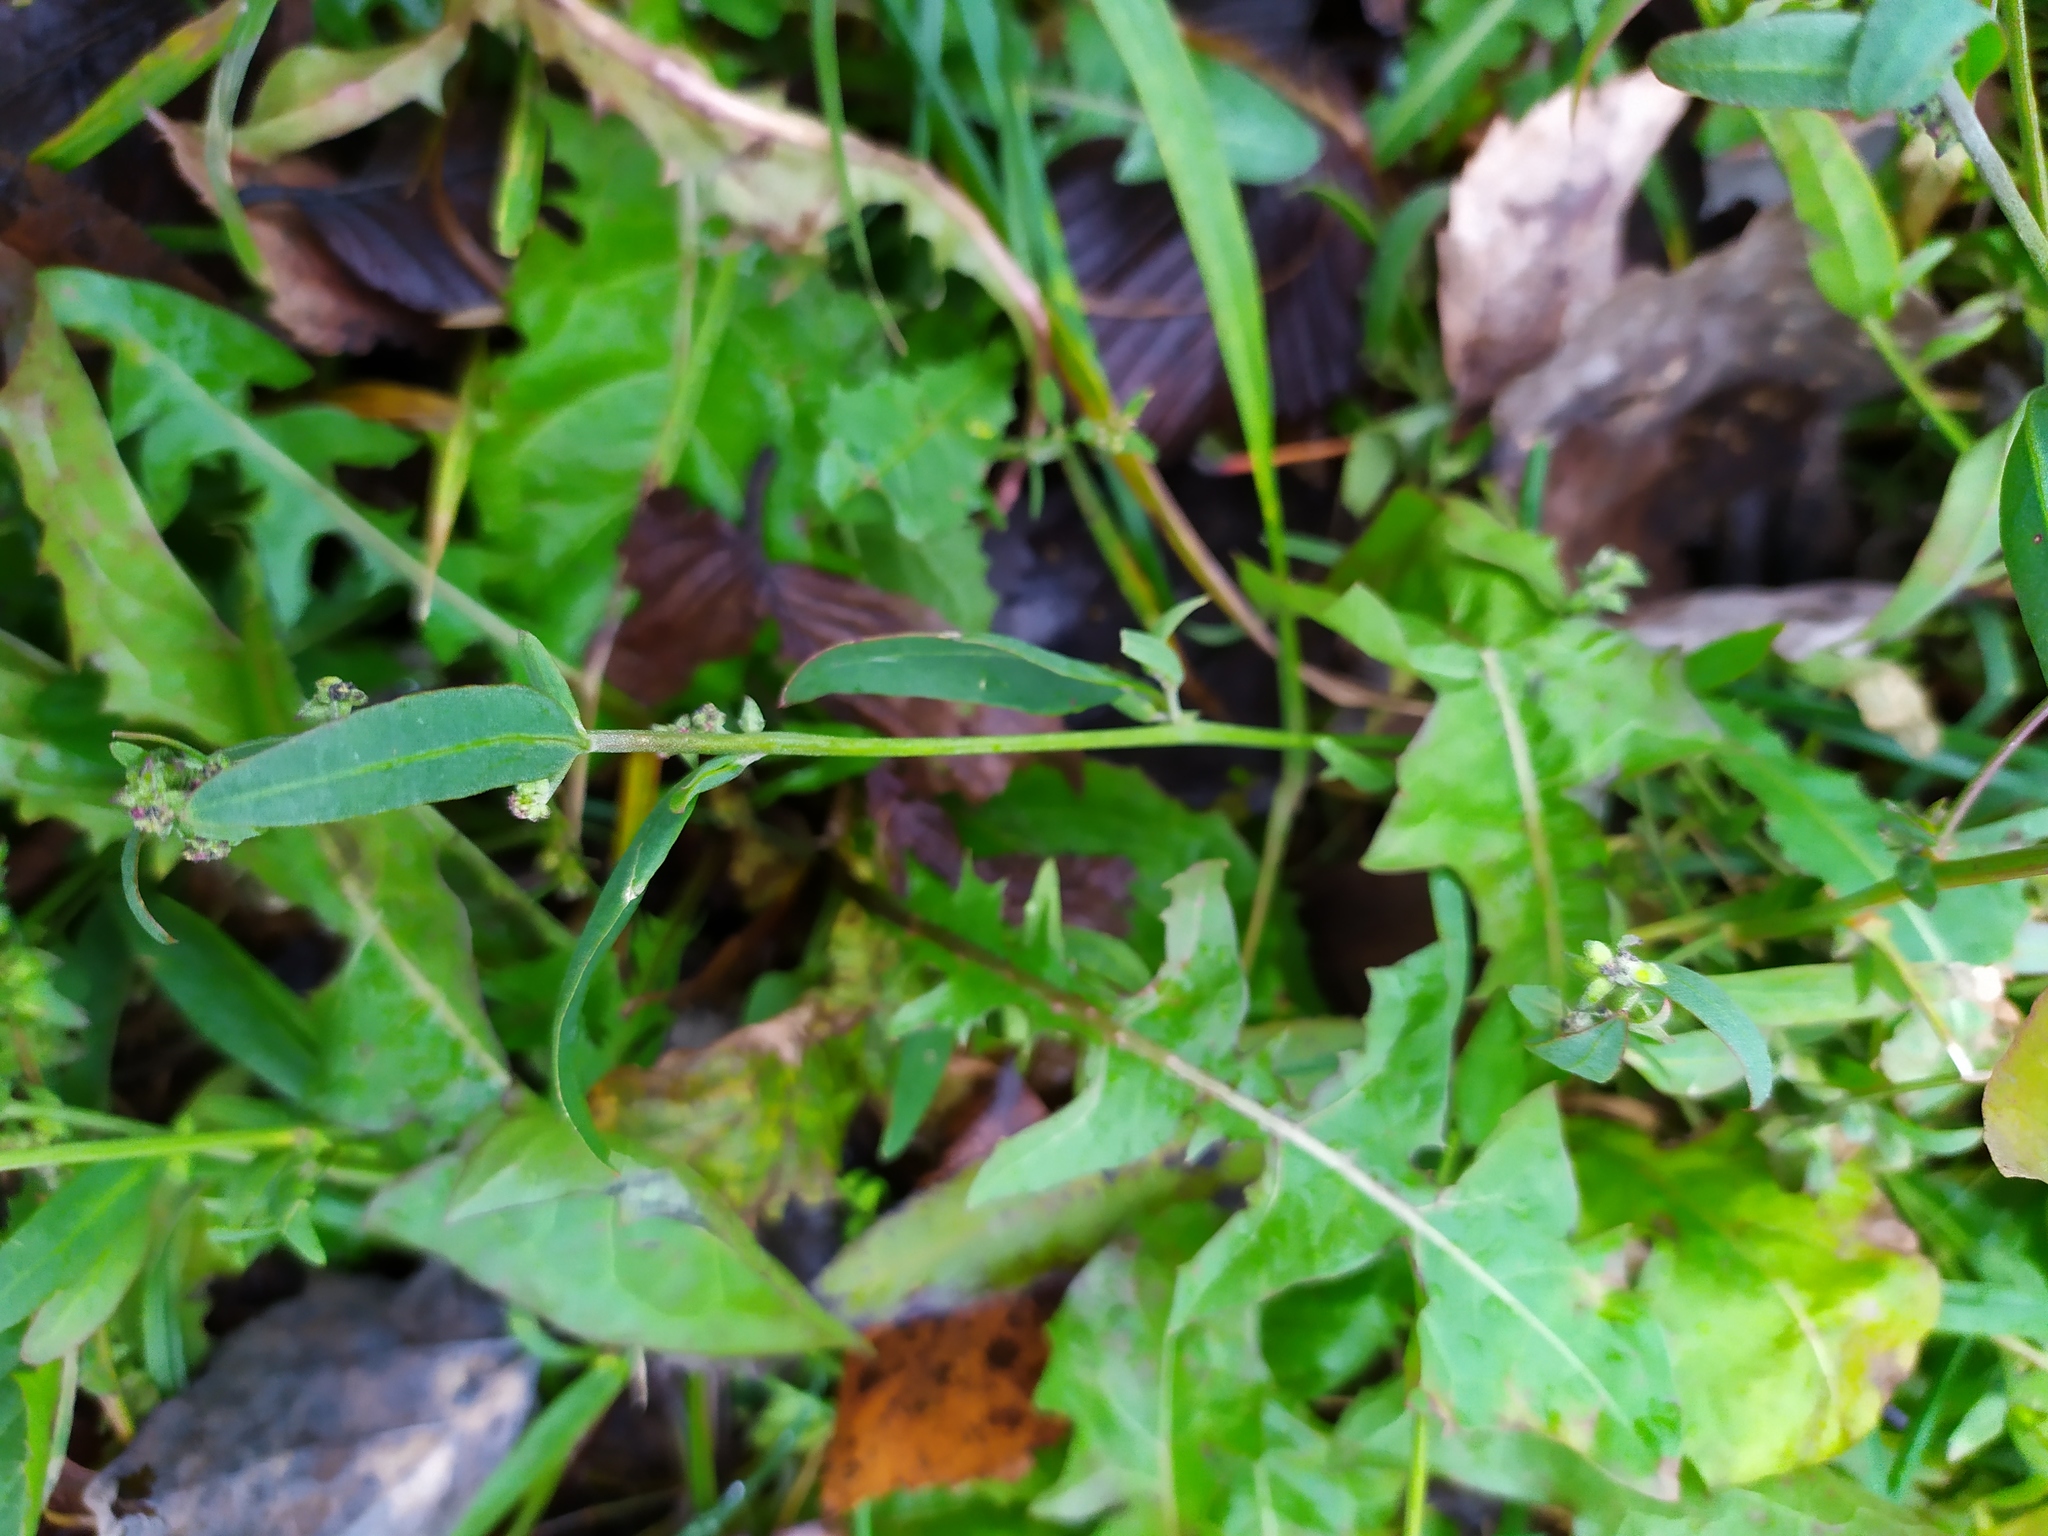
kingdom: Plantae
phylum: Tracheophyta
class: Magnoliopsida
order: Caryophyllales
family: Amaranthaceae
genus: Atriplex
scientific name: Atriplex patula
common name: Common orache
